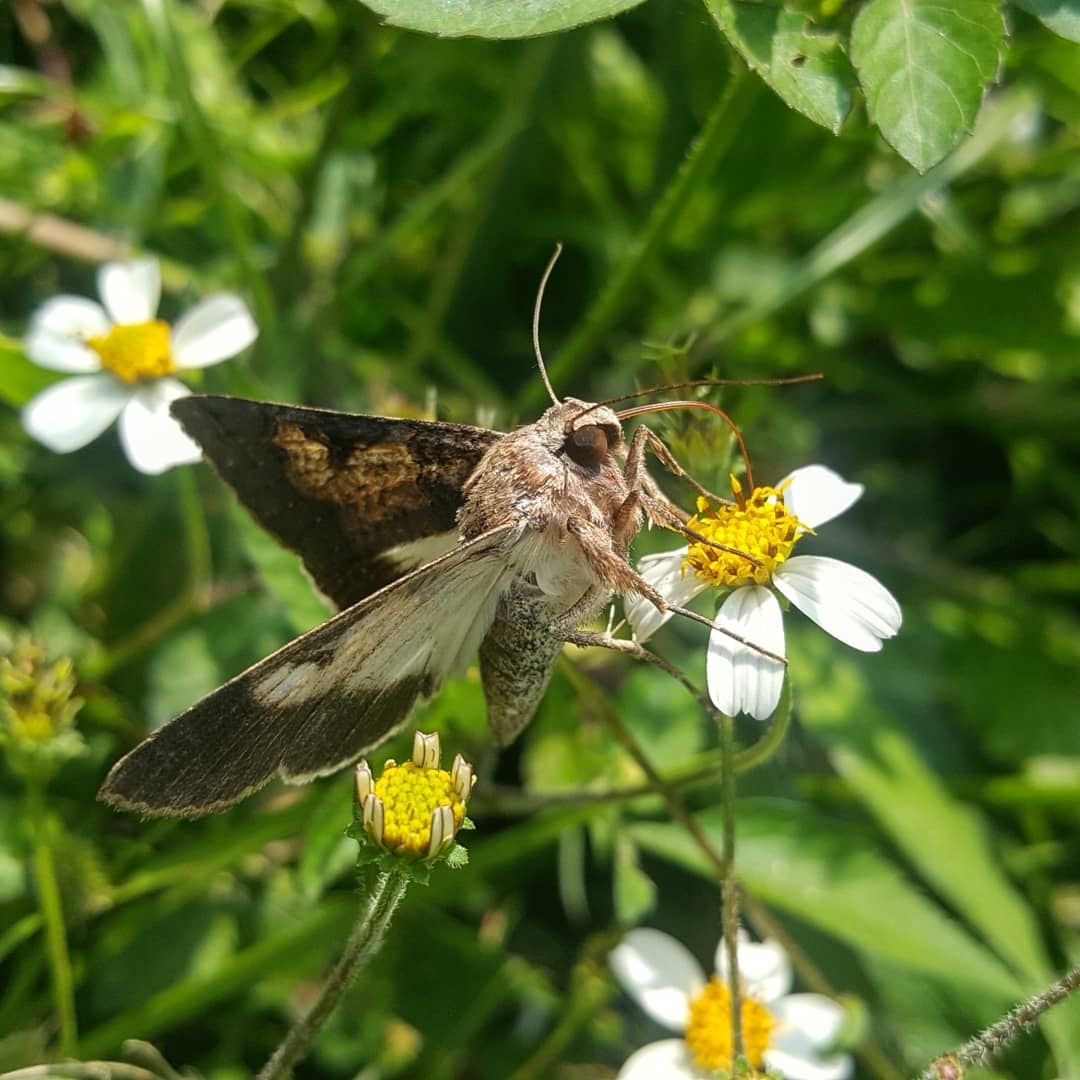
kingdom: Animalia
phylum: Arthropoda
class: Insecta
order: Lepidoptera
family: Erebidae
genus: Melipotis
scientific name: Melipotis agrotoides
